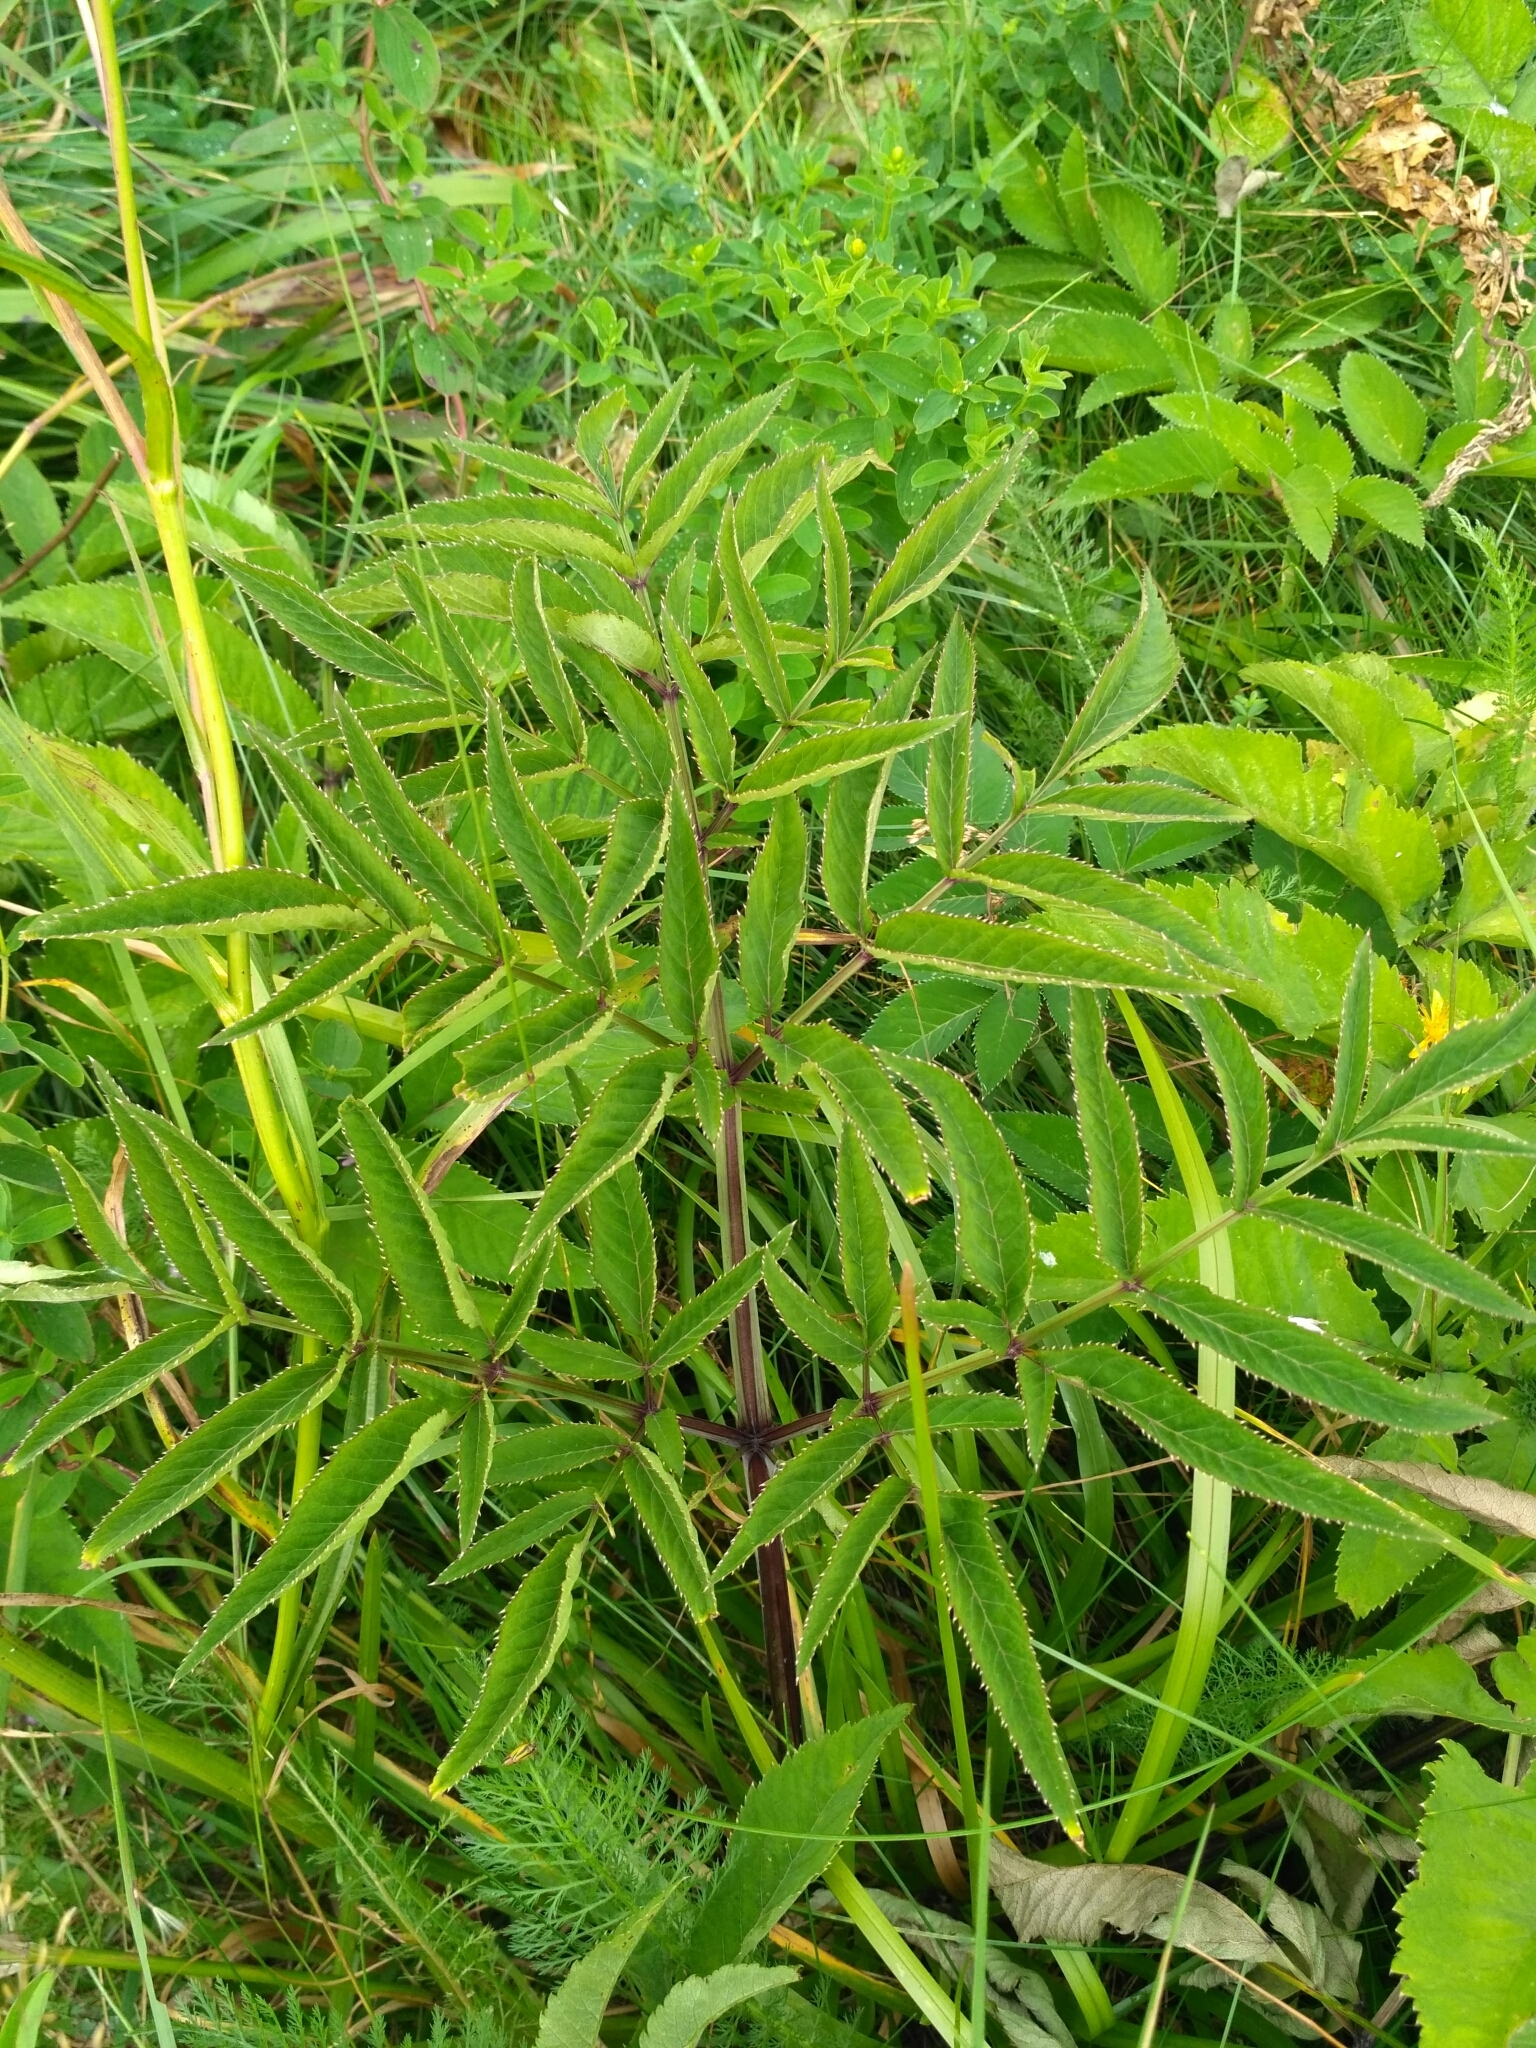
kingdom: Plantae
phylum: Tracheophyta
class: Magnoliopsida
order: Apiales
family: Apiaceae
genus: Angelica
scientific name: Angelica sylvestris
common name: Wild angelica
